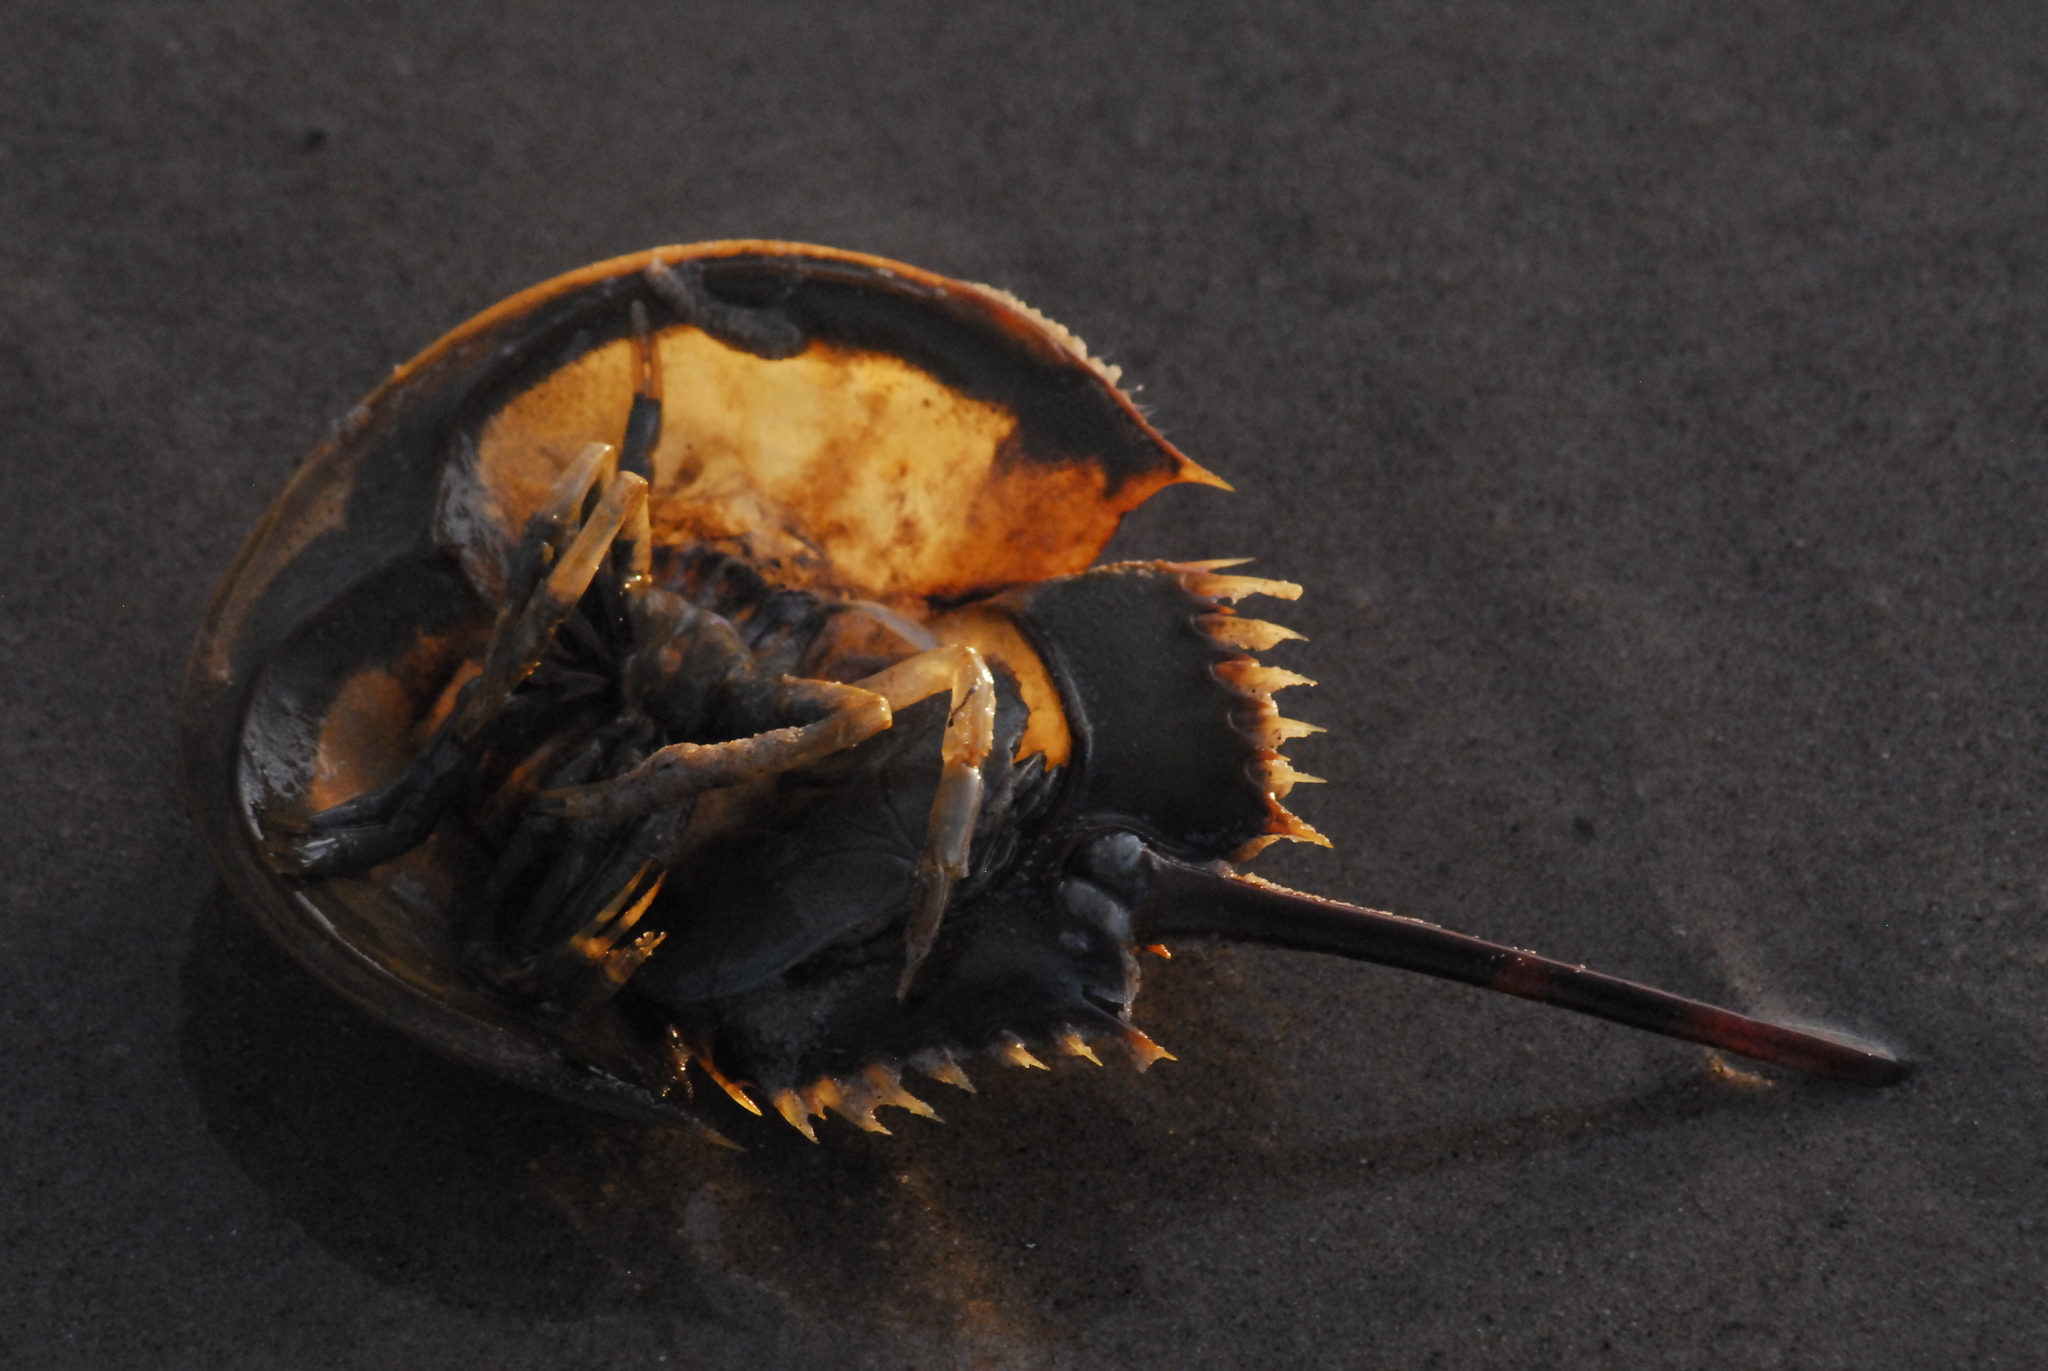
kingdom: Animalia
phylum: Arthropoda
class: Merostomata
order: Xiphosurida
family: Limulidae
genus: Carcinoscorpius
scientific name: Carcinoscorpius rotundicauda
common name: Horseshoe crab
